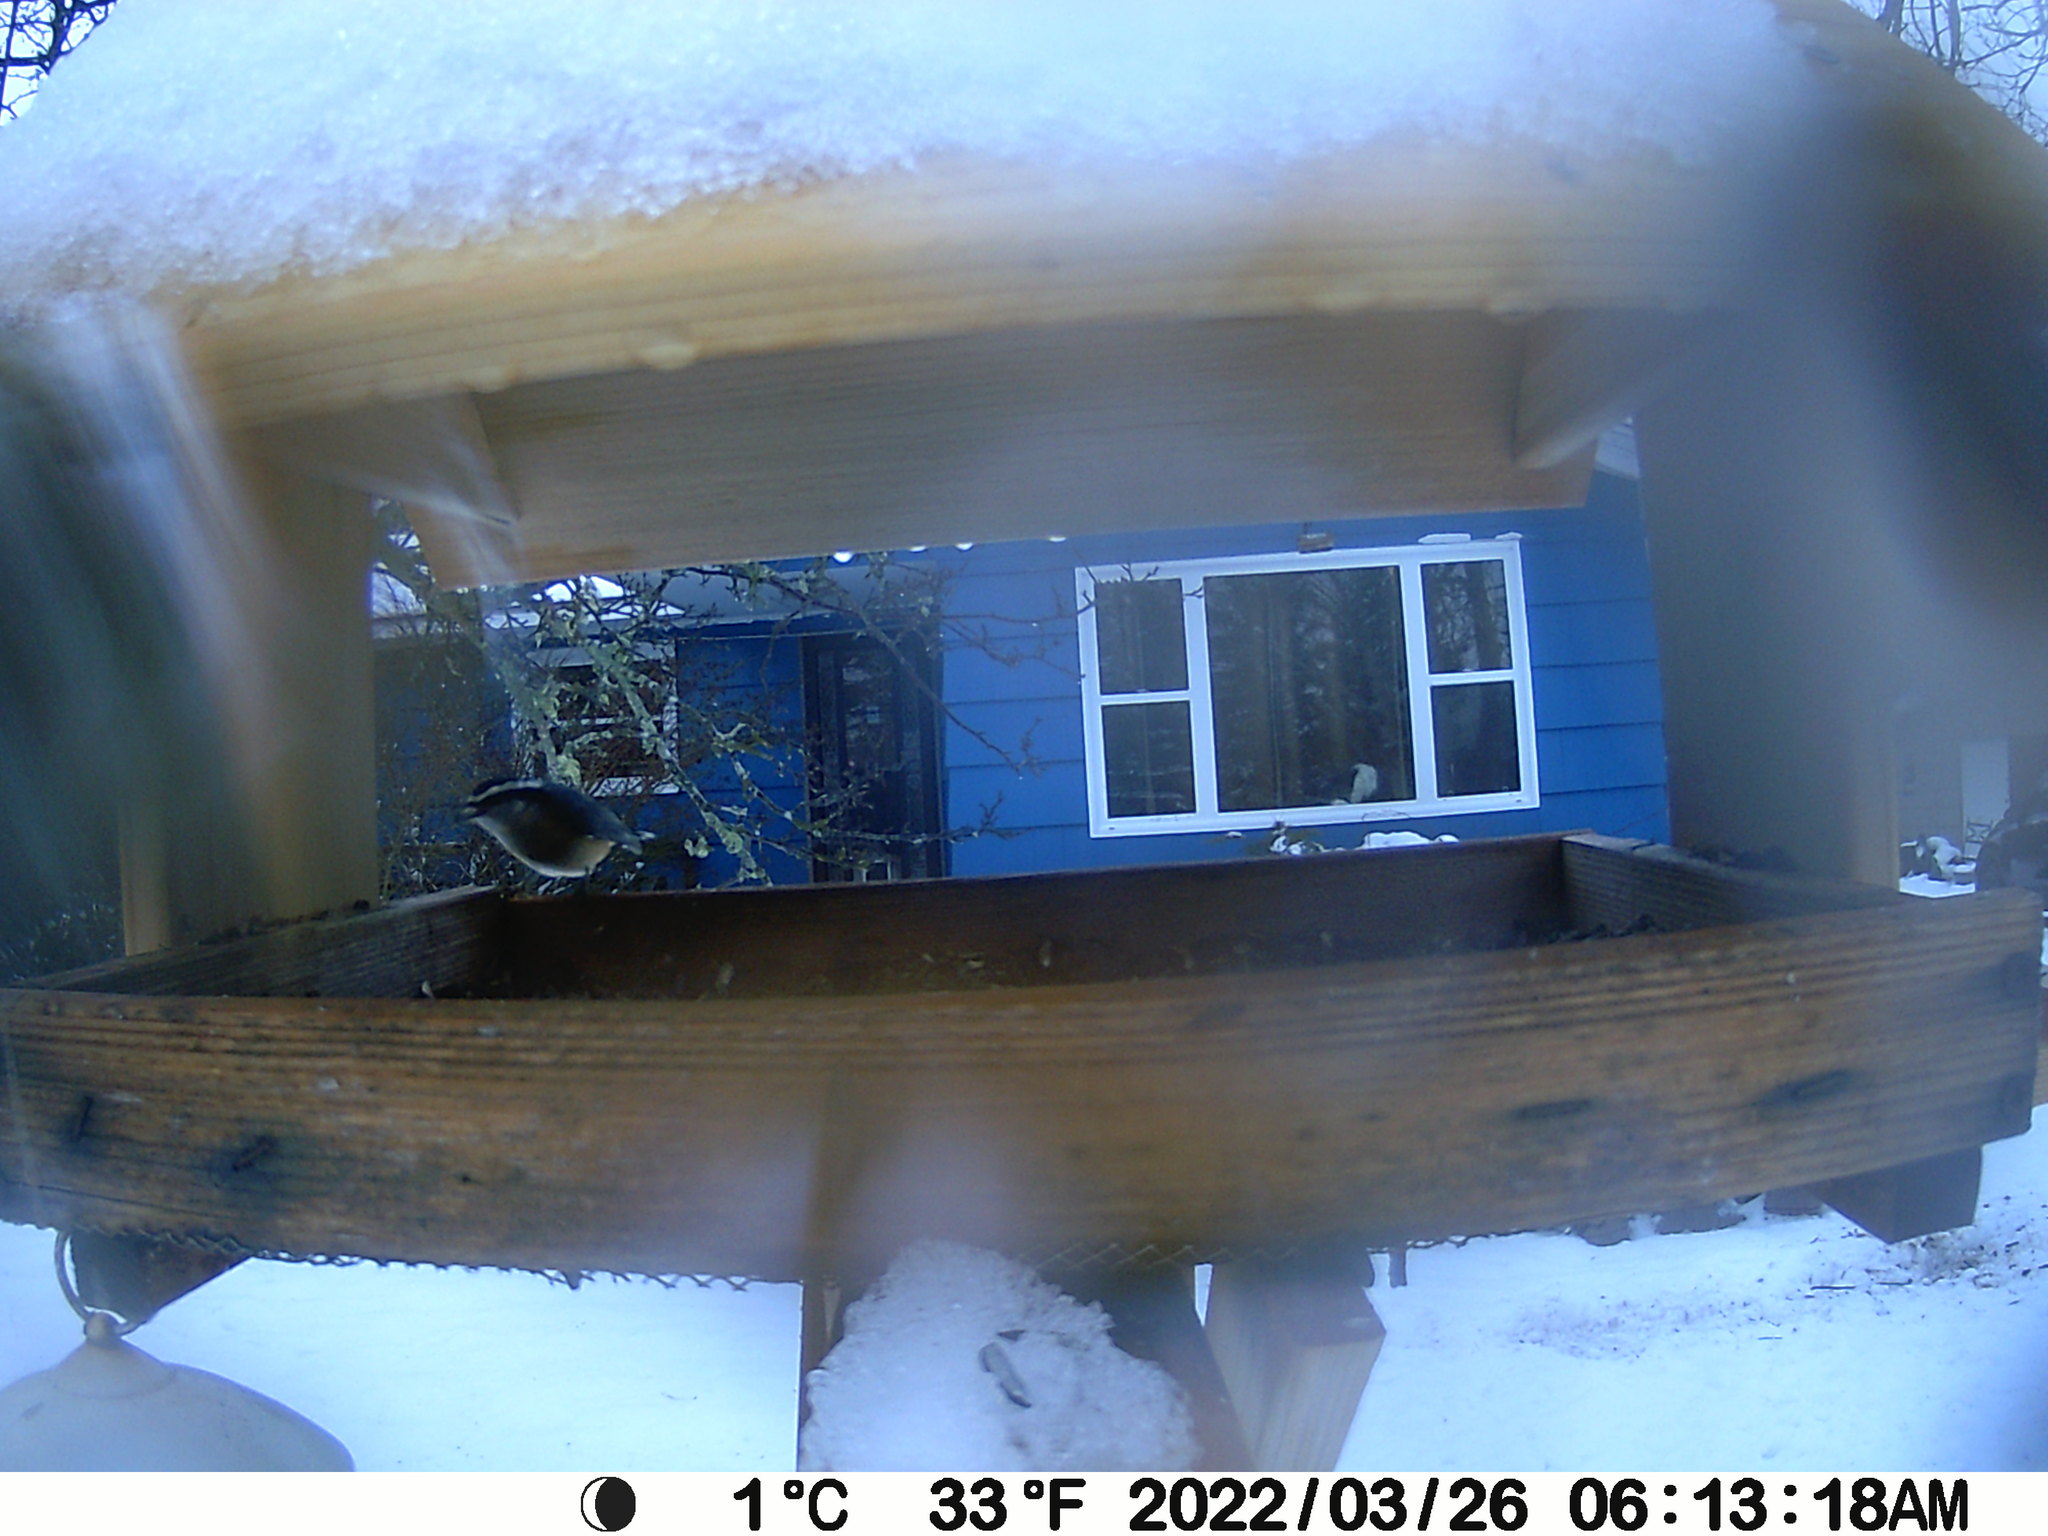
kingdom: Animalia
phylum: Chordata
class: Aves
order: Passeriformes
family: Sittidae
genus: Sitta
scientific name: Sitta canadensis
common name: Red-breasted nuthatch
